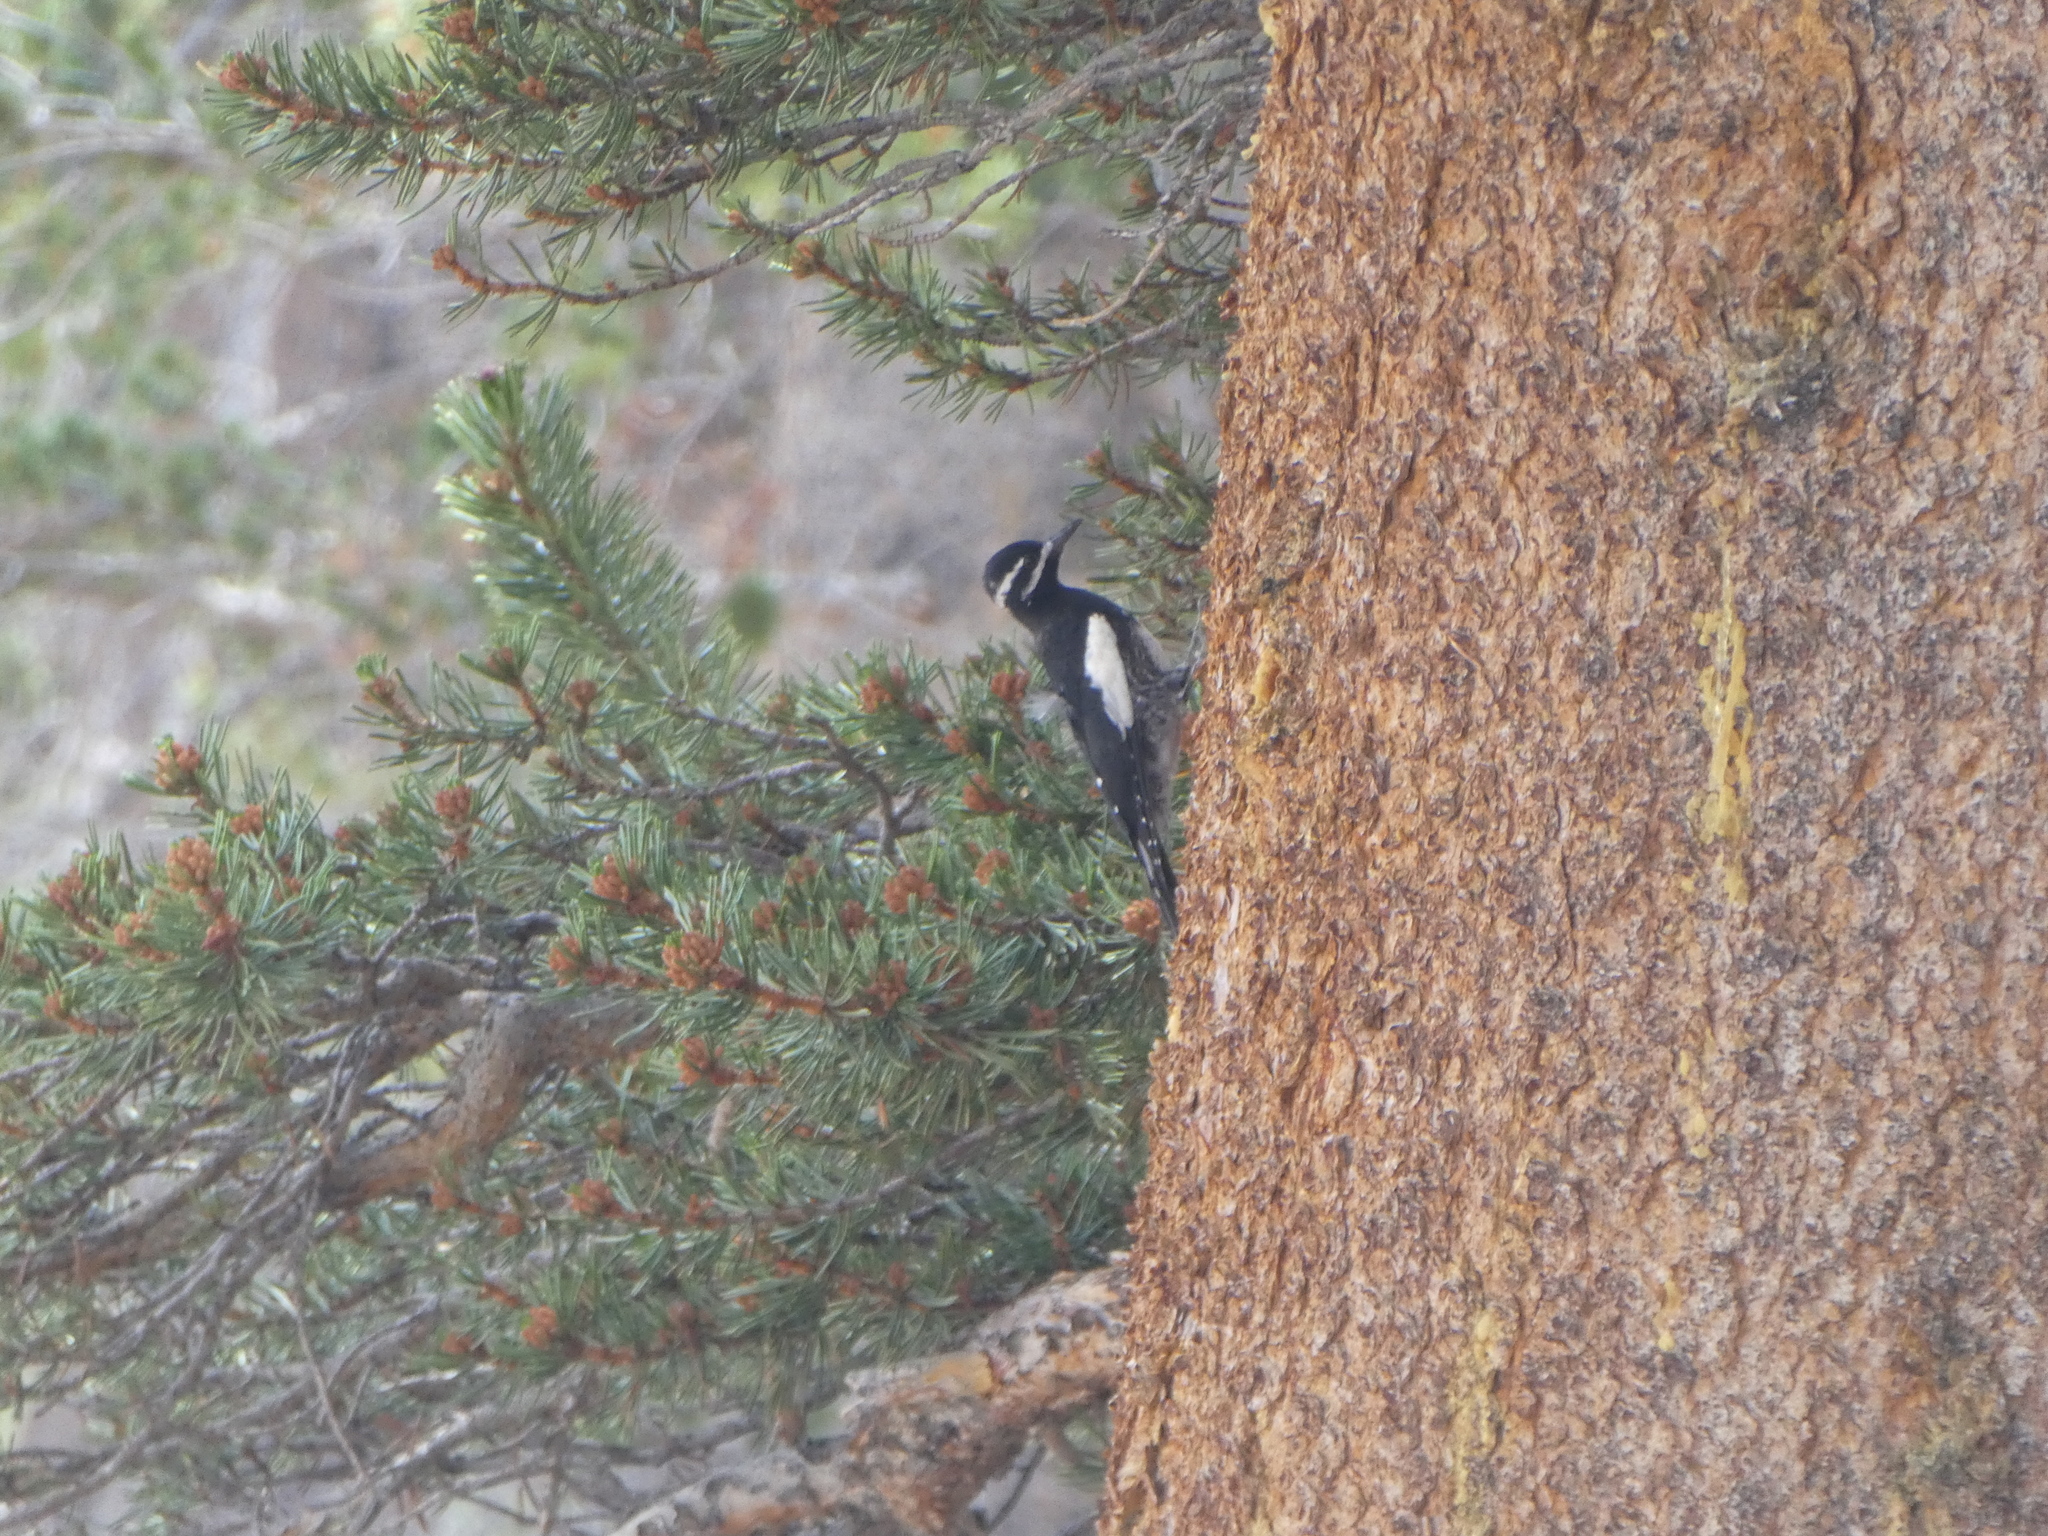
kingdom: Animalia
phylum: Chordata
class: Aves
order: Piciformes
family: Picidae
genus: Sphyrapicus
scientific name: Sphyrapicus thyroideus
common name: Williamson's sapsucker
